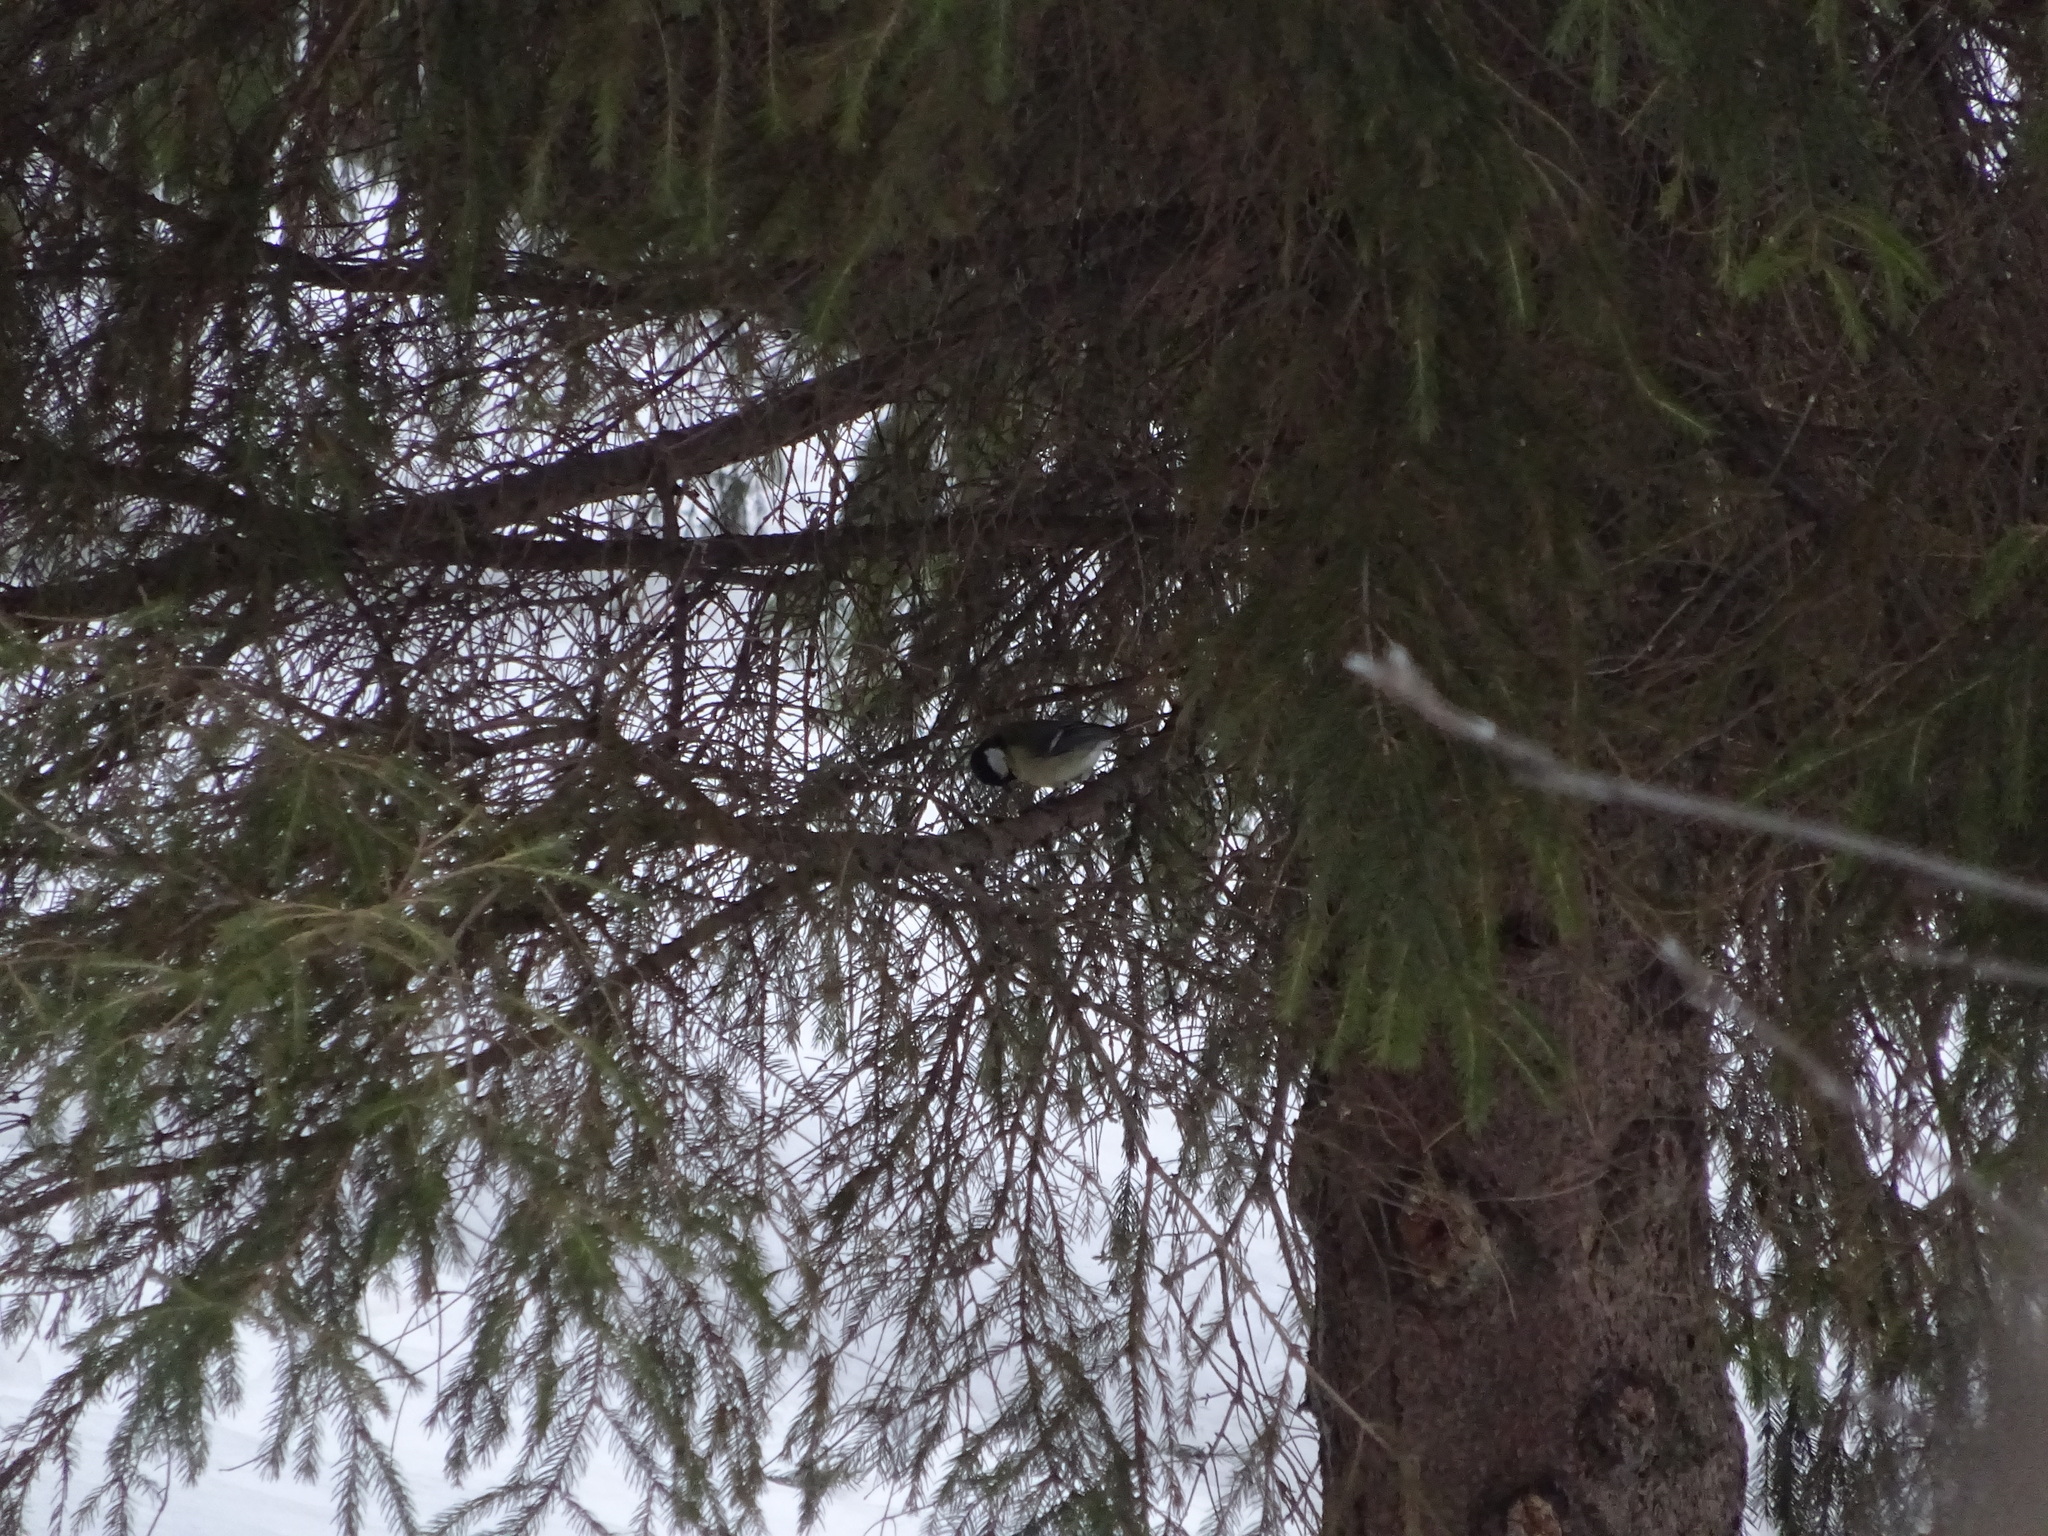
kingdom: Animalia
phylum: Chordata
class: Aves
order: Passeriformes
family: Paridae
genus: Parus
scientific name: Parus major
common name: Great tit
